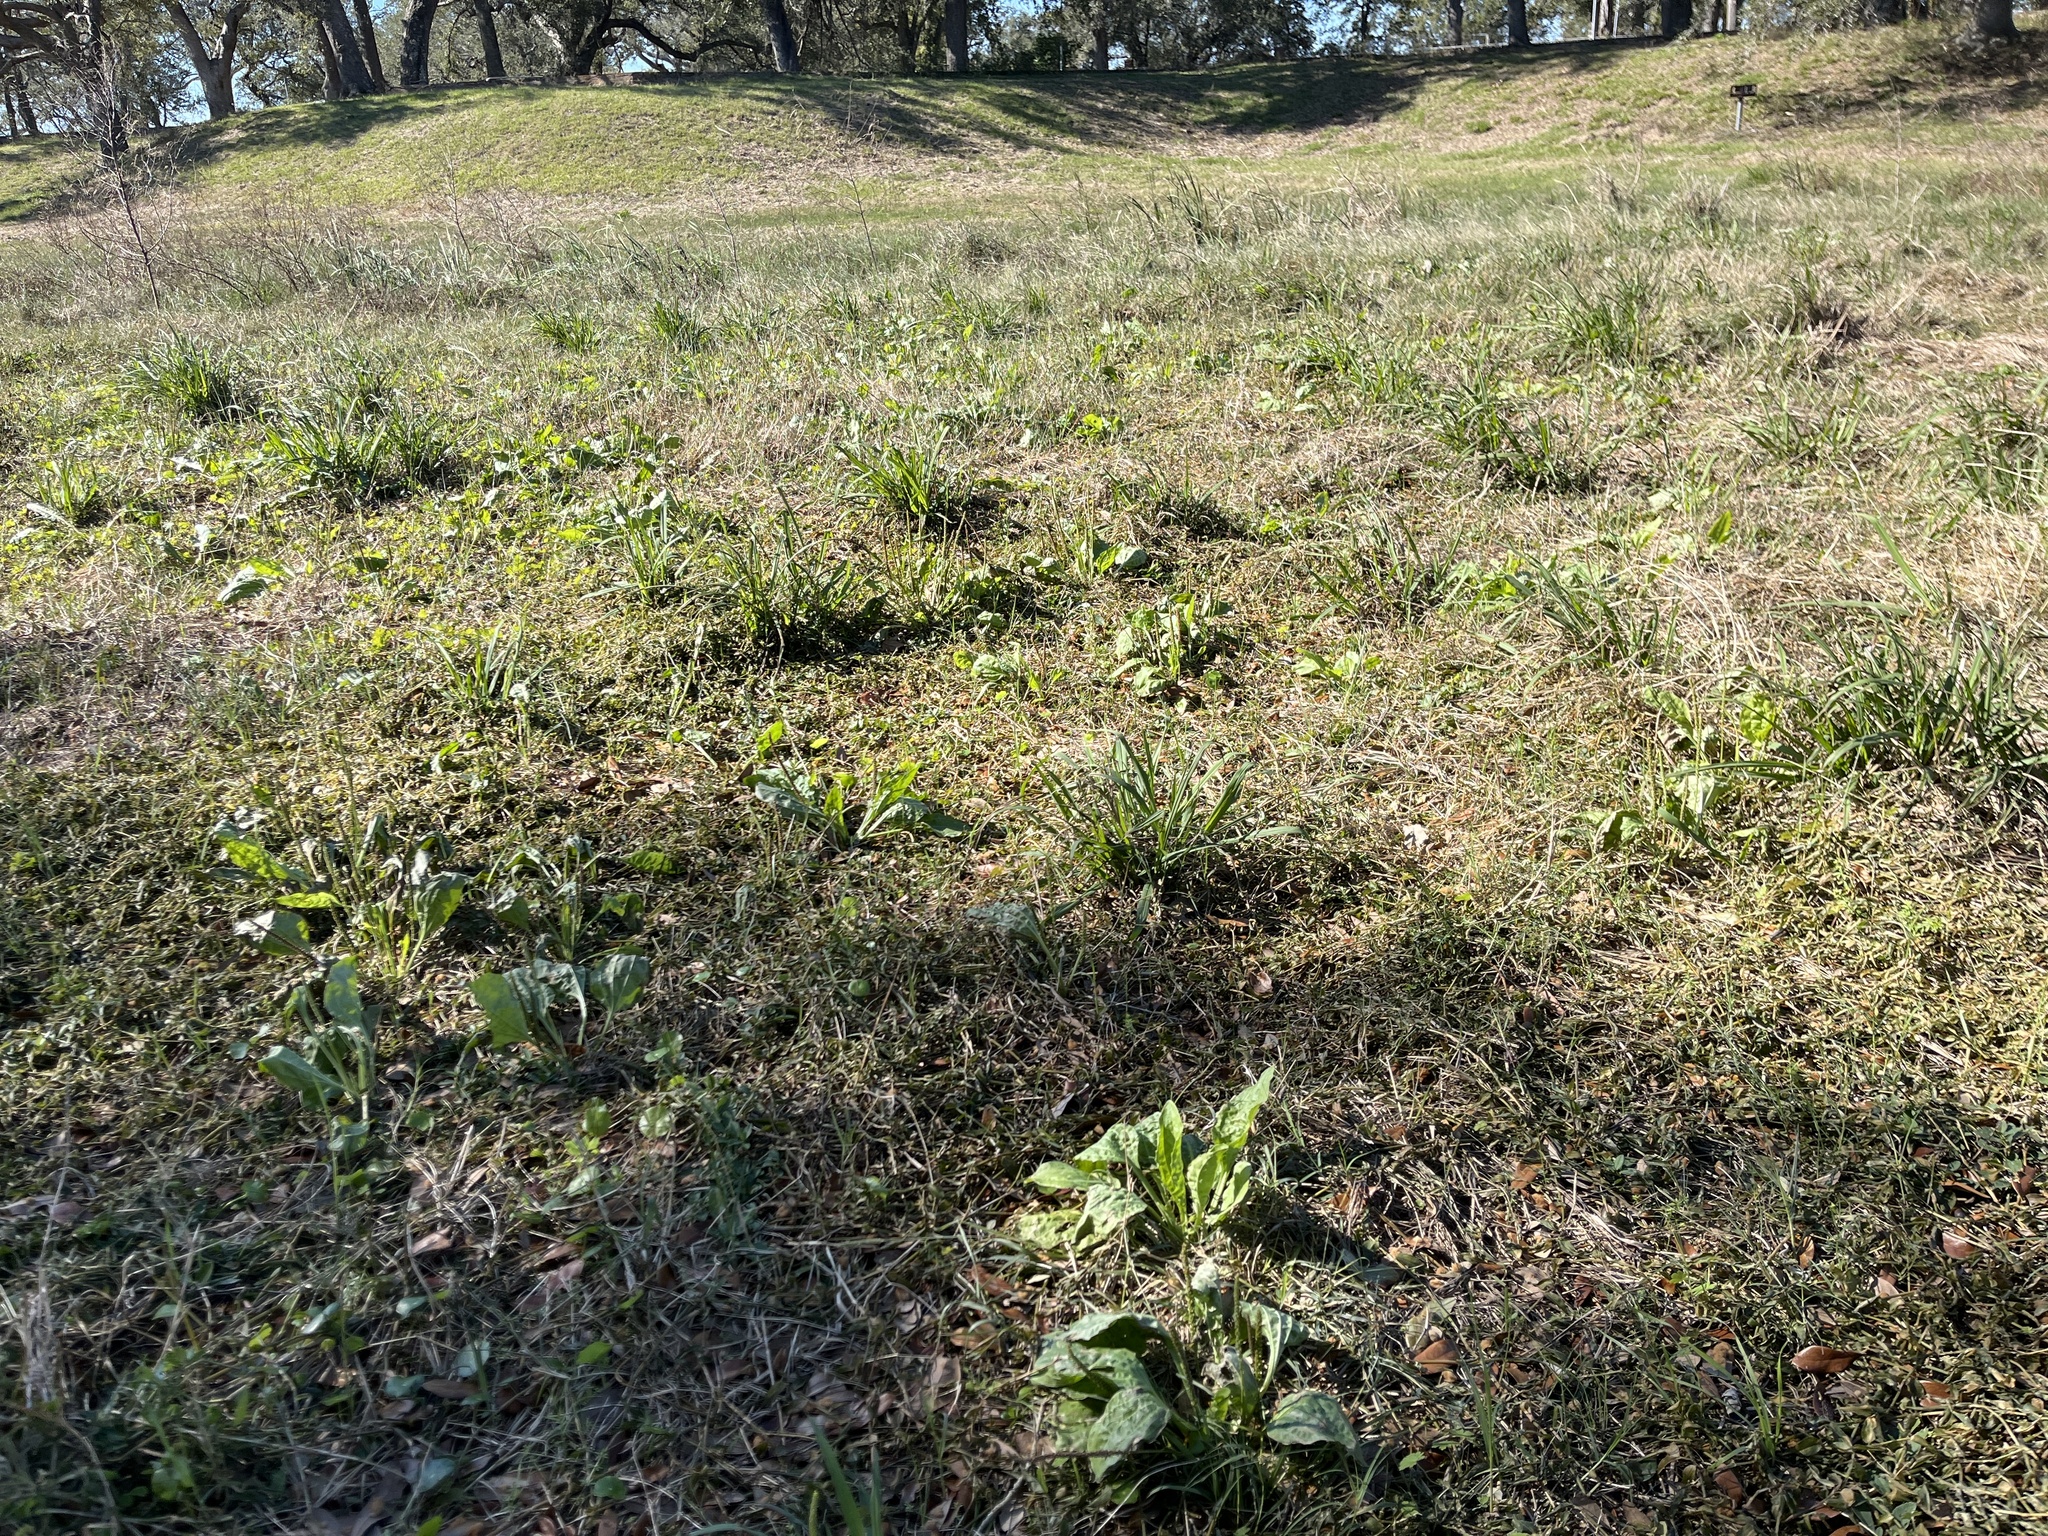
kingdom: Plantae
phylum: Tracheophyta
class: Magnoliopsida
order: Lamiales
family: Plantaginaceae
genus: Plantago
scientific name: Plantago major
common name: Common plantain
